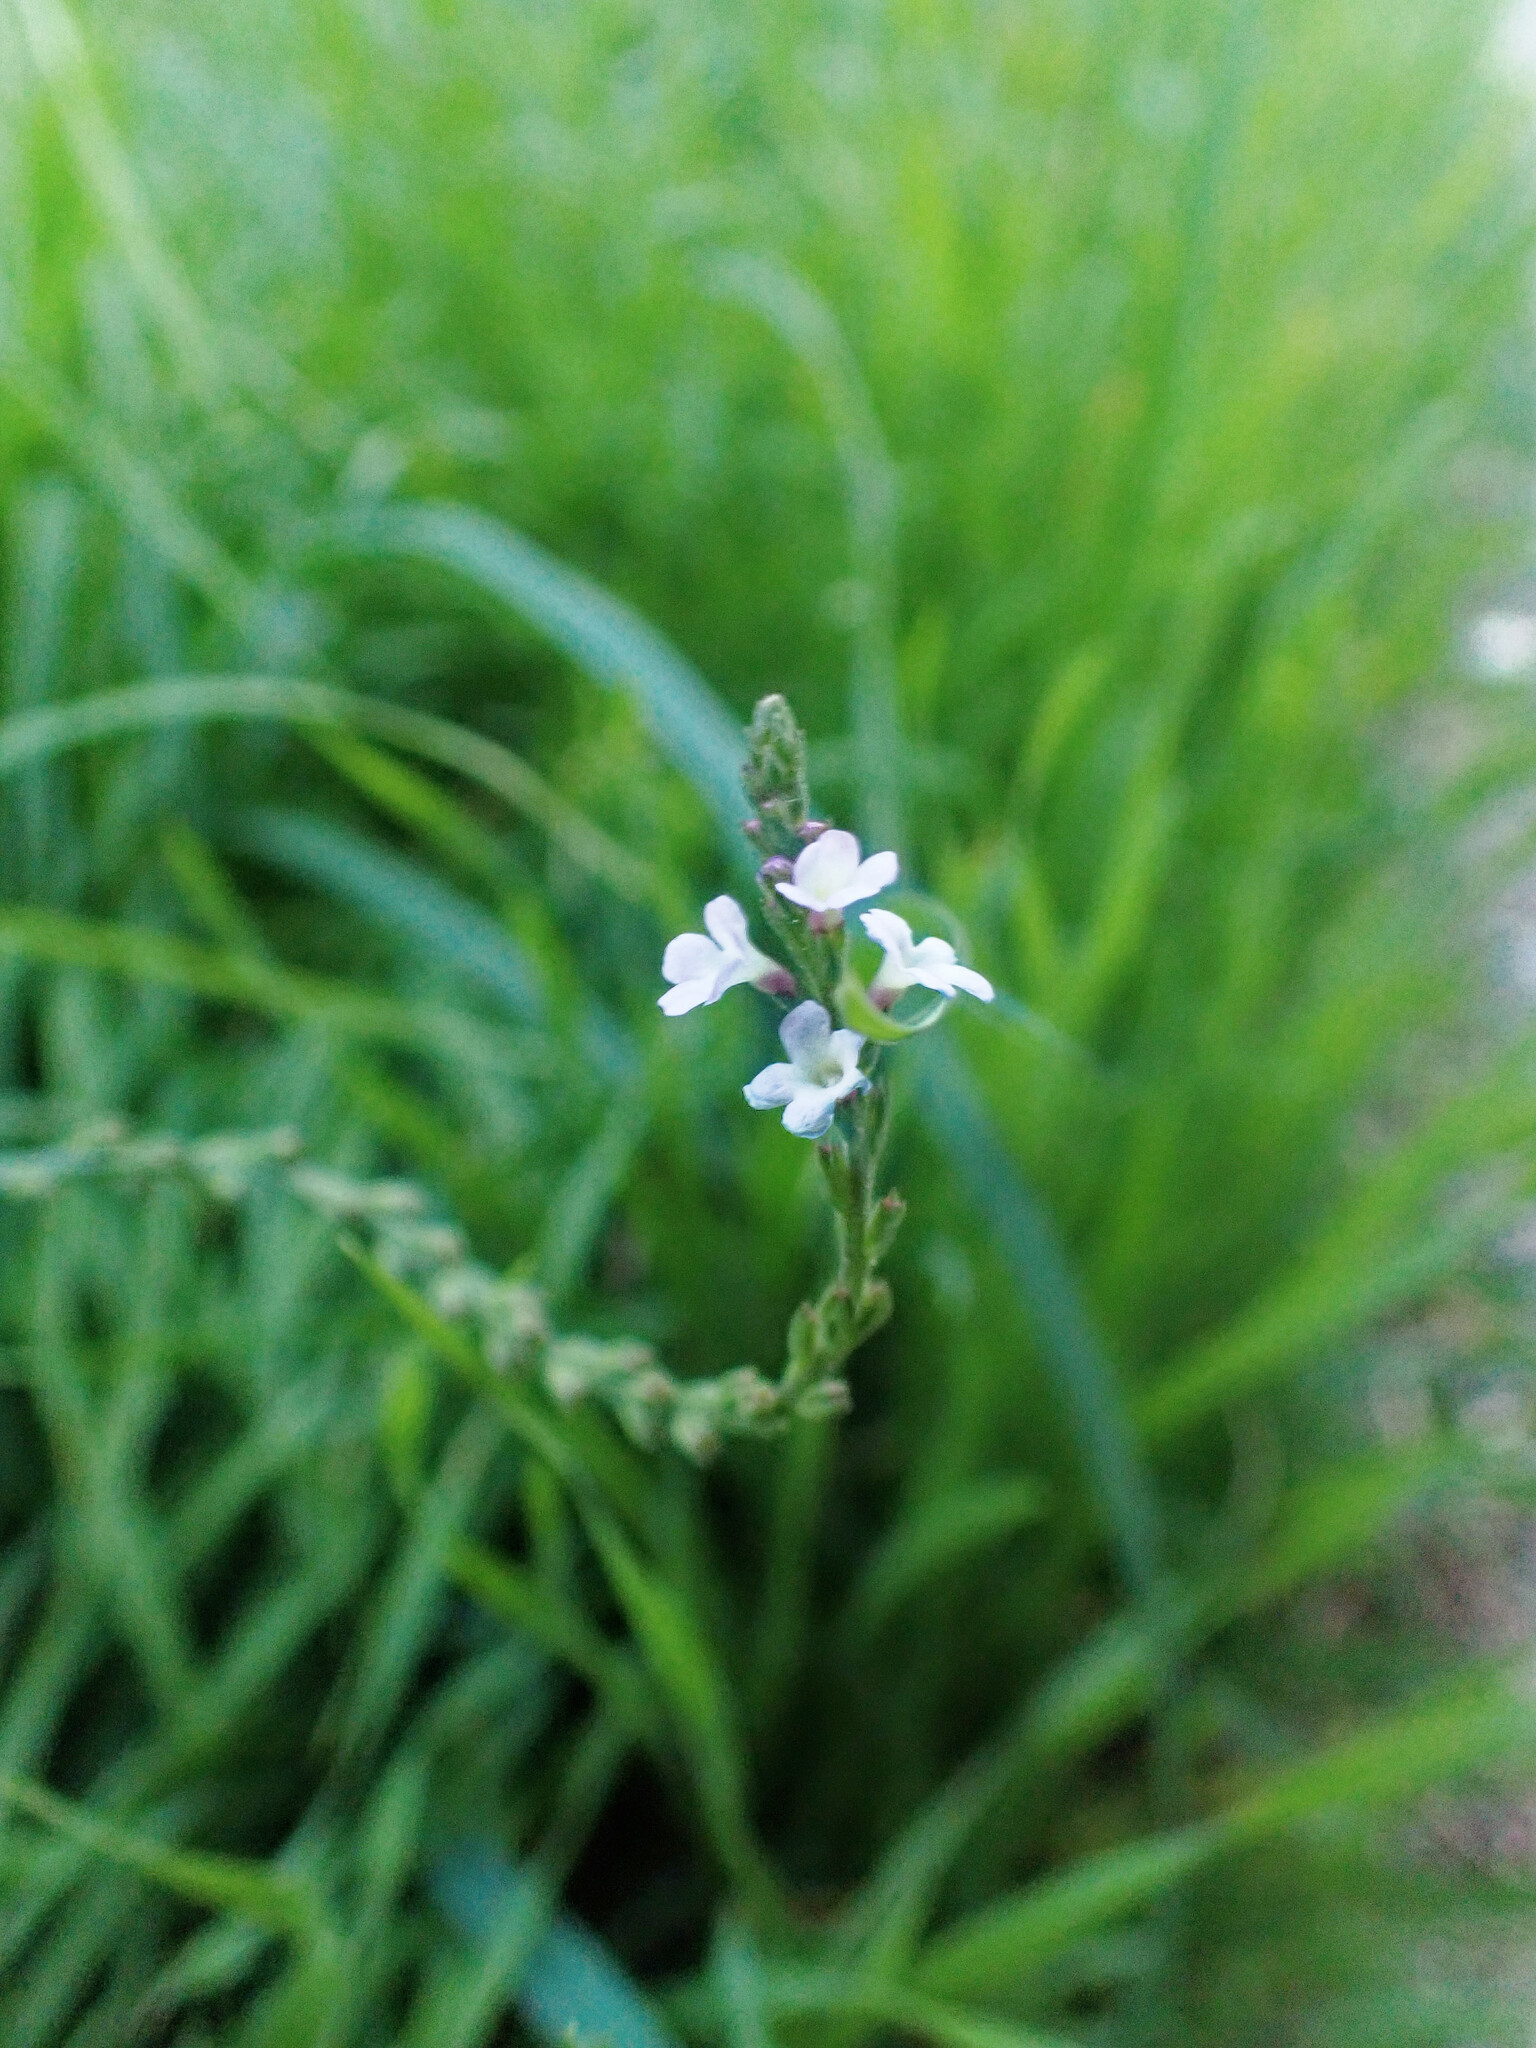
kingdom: Plantae
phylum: Tracheophyta
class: Magnoliopsida
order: Lamiales
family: Verbenaceae
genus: Verbena
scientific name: Verbena officinalis
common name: Vervain
